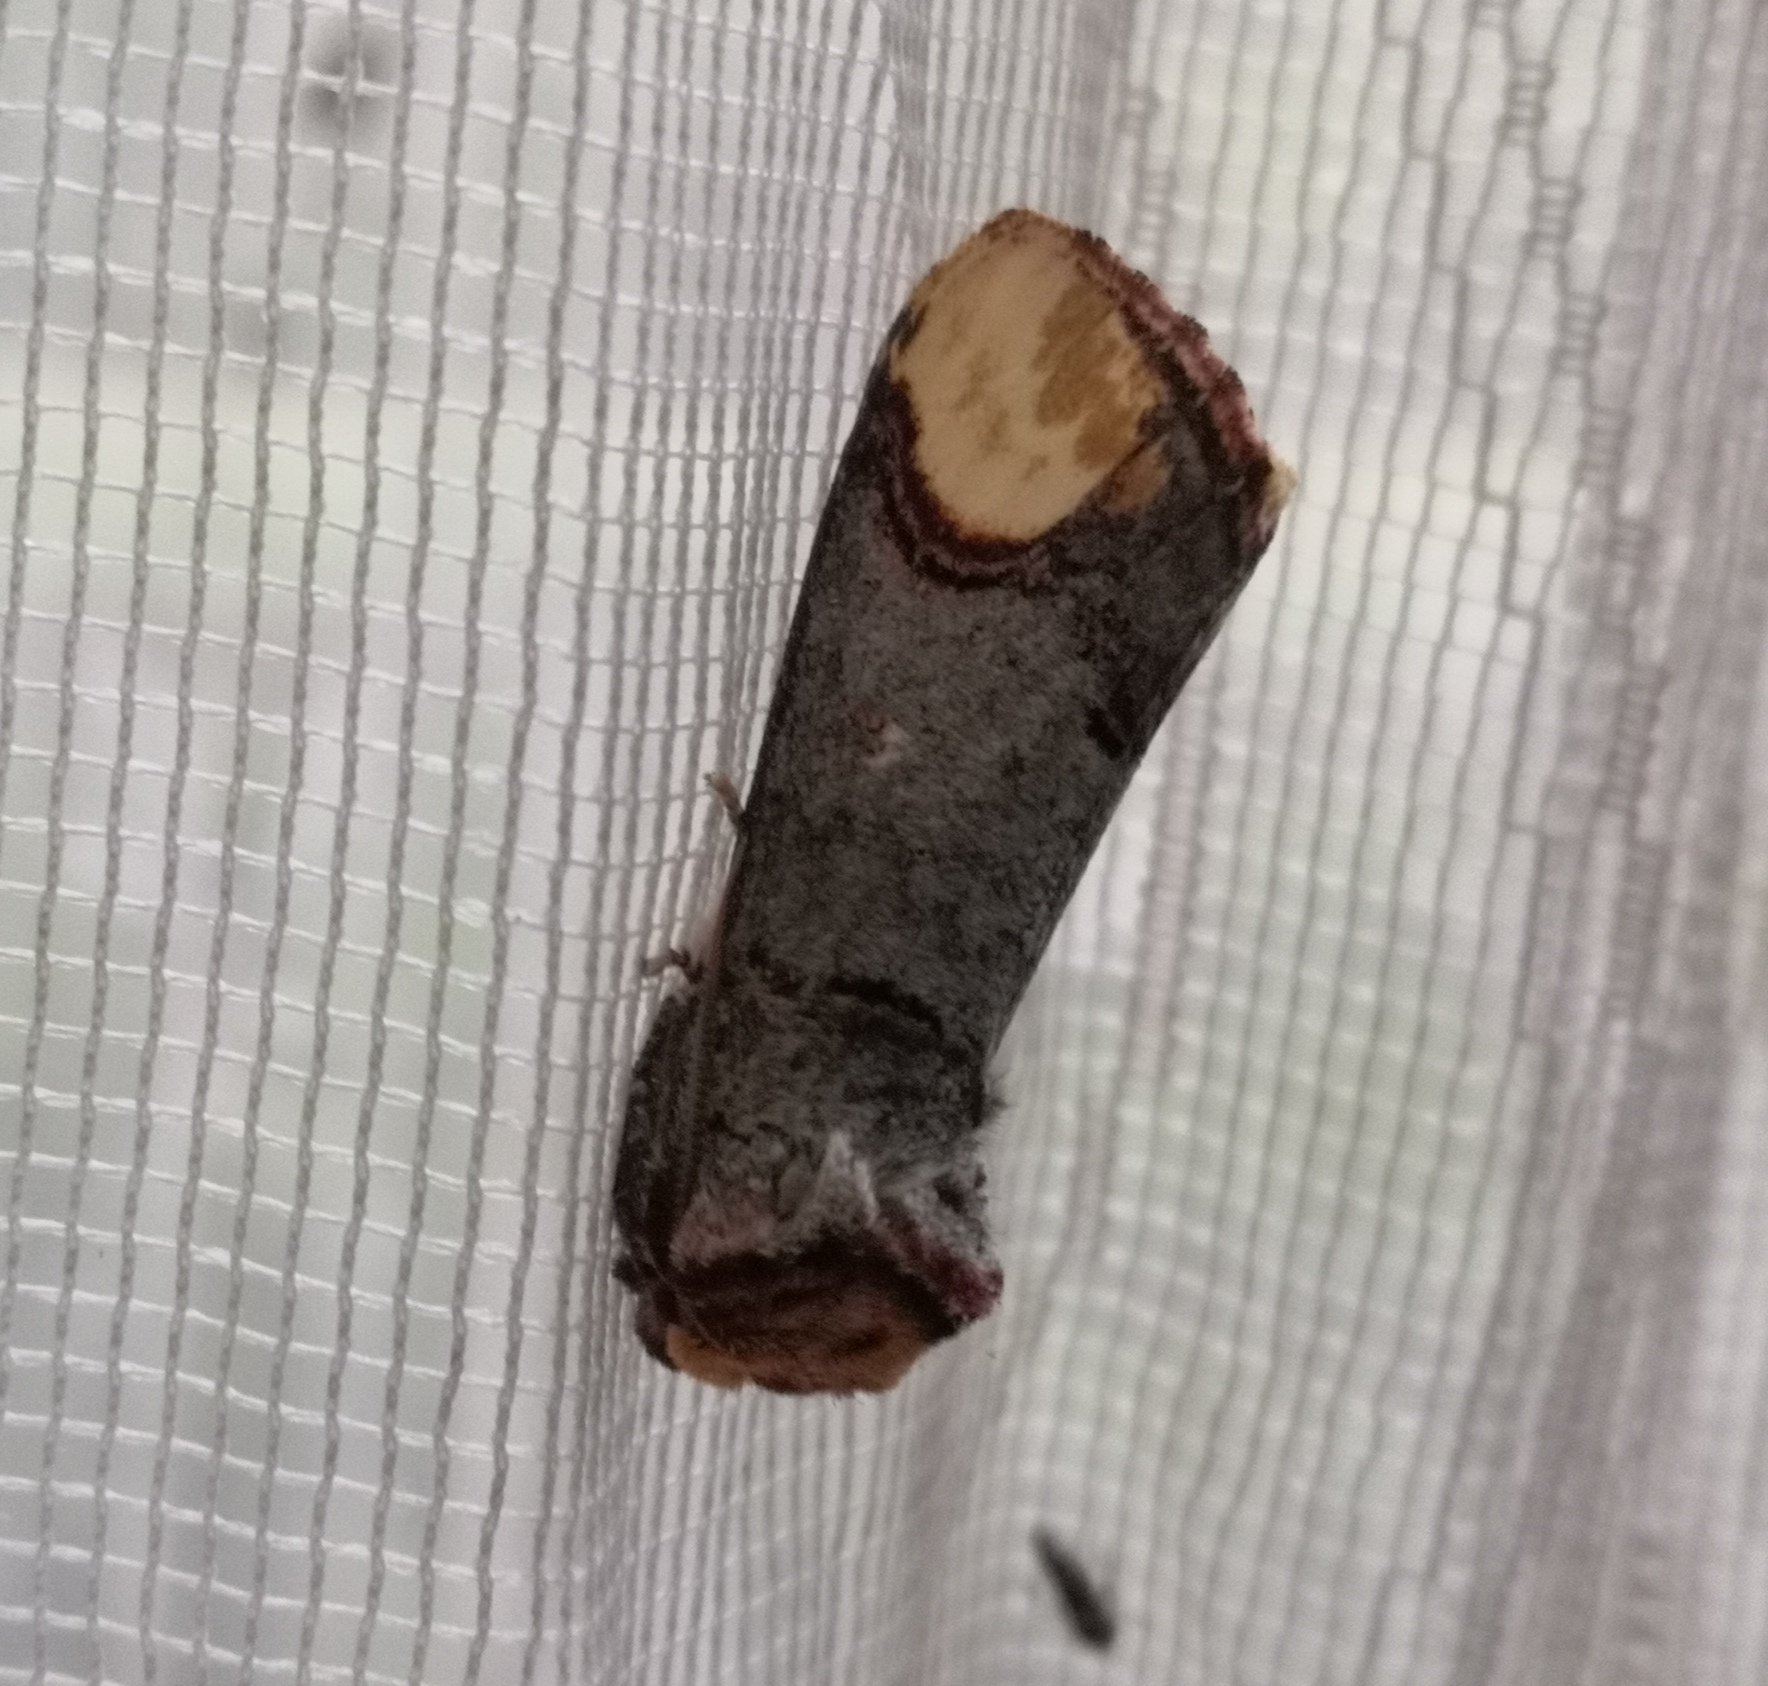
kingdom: Animalia
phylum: Arthropoda
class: Insecta
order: Lepidoptera
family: Notodontidae
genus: Phalera
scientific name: Phalera bucephala
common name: Buff-tip
